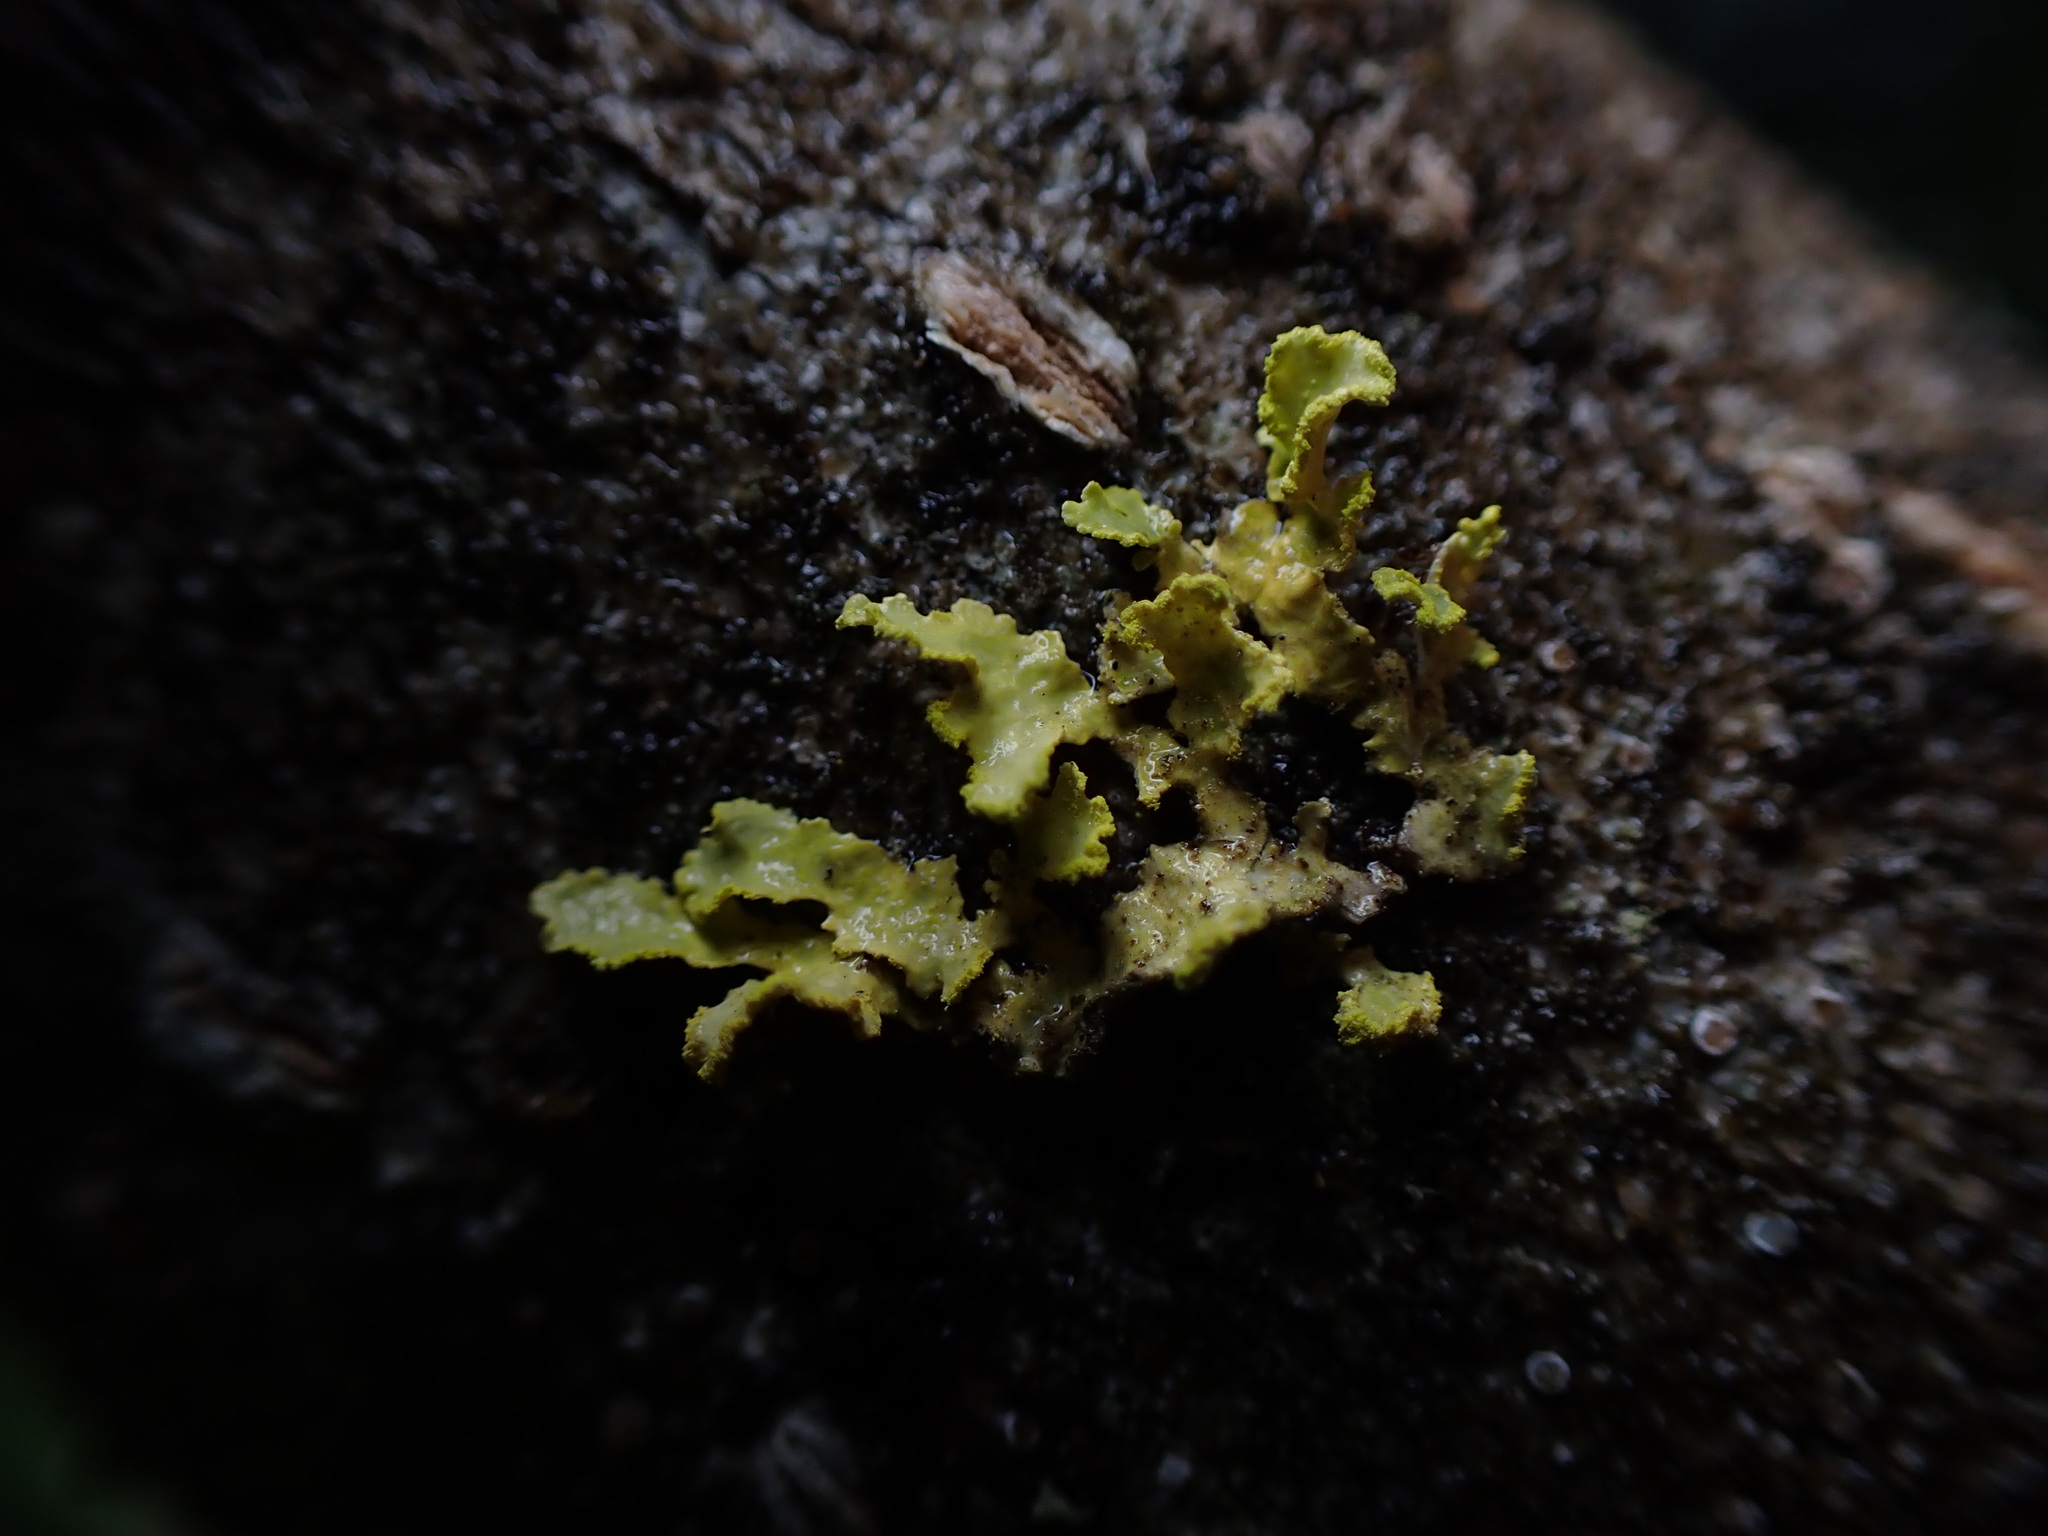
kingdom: Fungi
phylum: Ascomycota
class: Lecanoromycetes
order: Lecanorales
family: Parmeliaceae
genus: Vulpicida
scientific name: Vulpicida pinastri
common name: Powdered sunshine lichen
